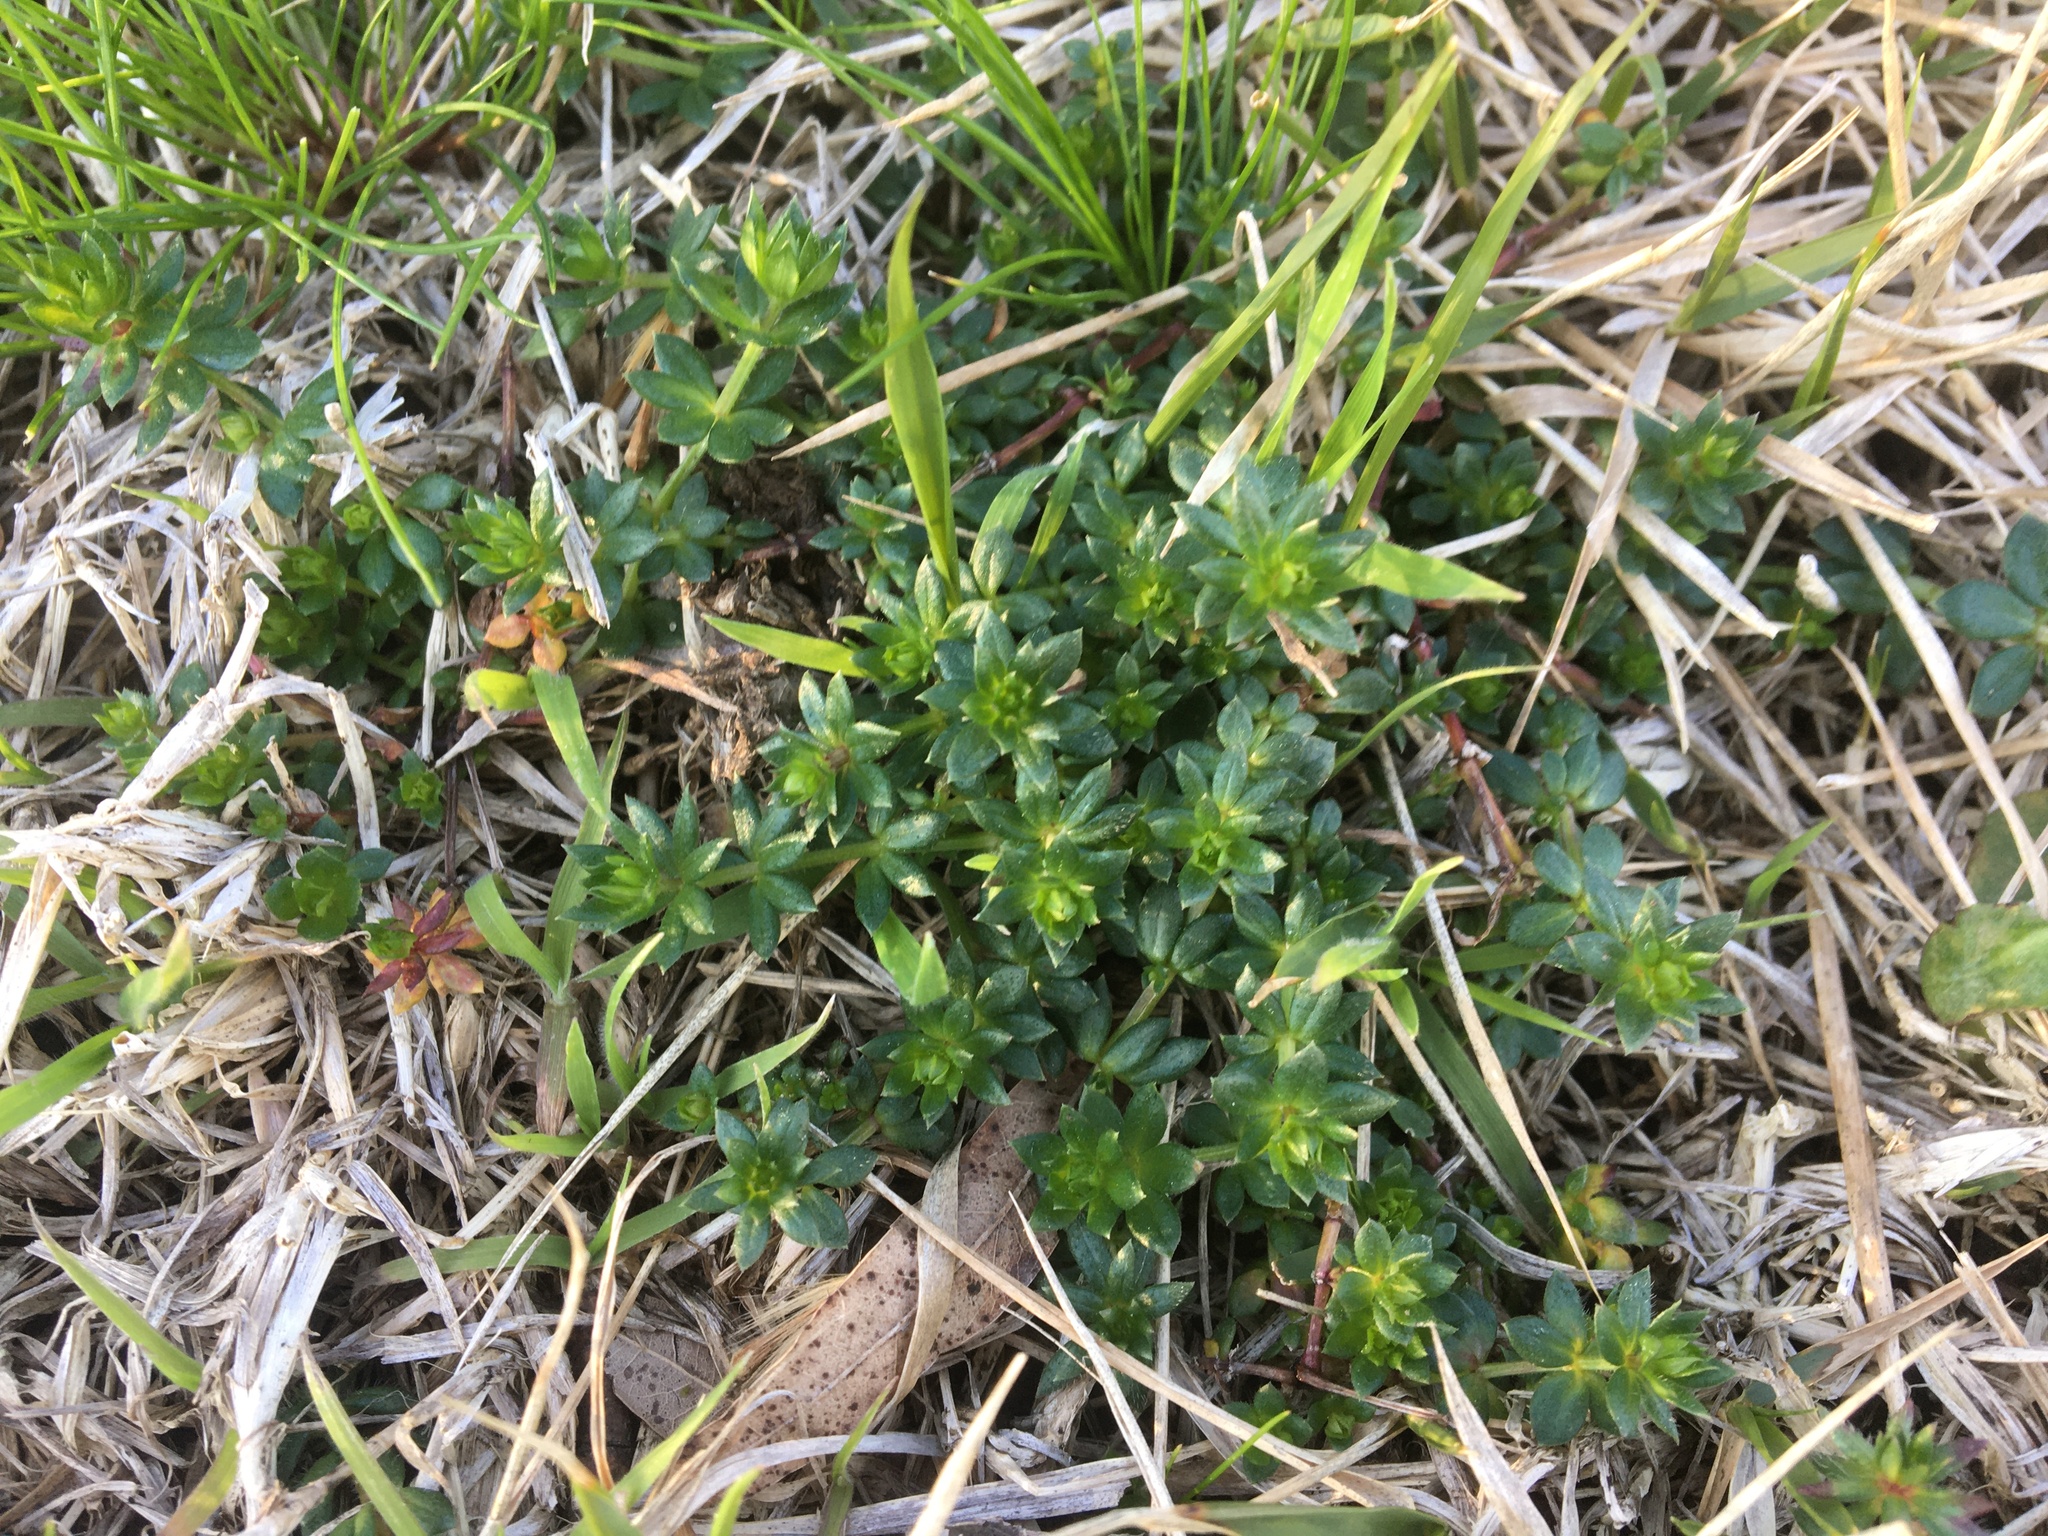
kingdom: Plantae
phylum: Tracheophyta
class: Magnoliopsida
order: Gentianales
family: Rubiaceae
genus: Sherardia
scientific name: Sherardia arvensis
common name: Field madder
